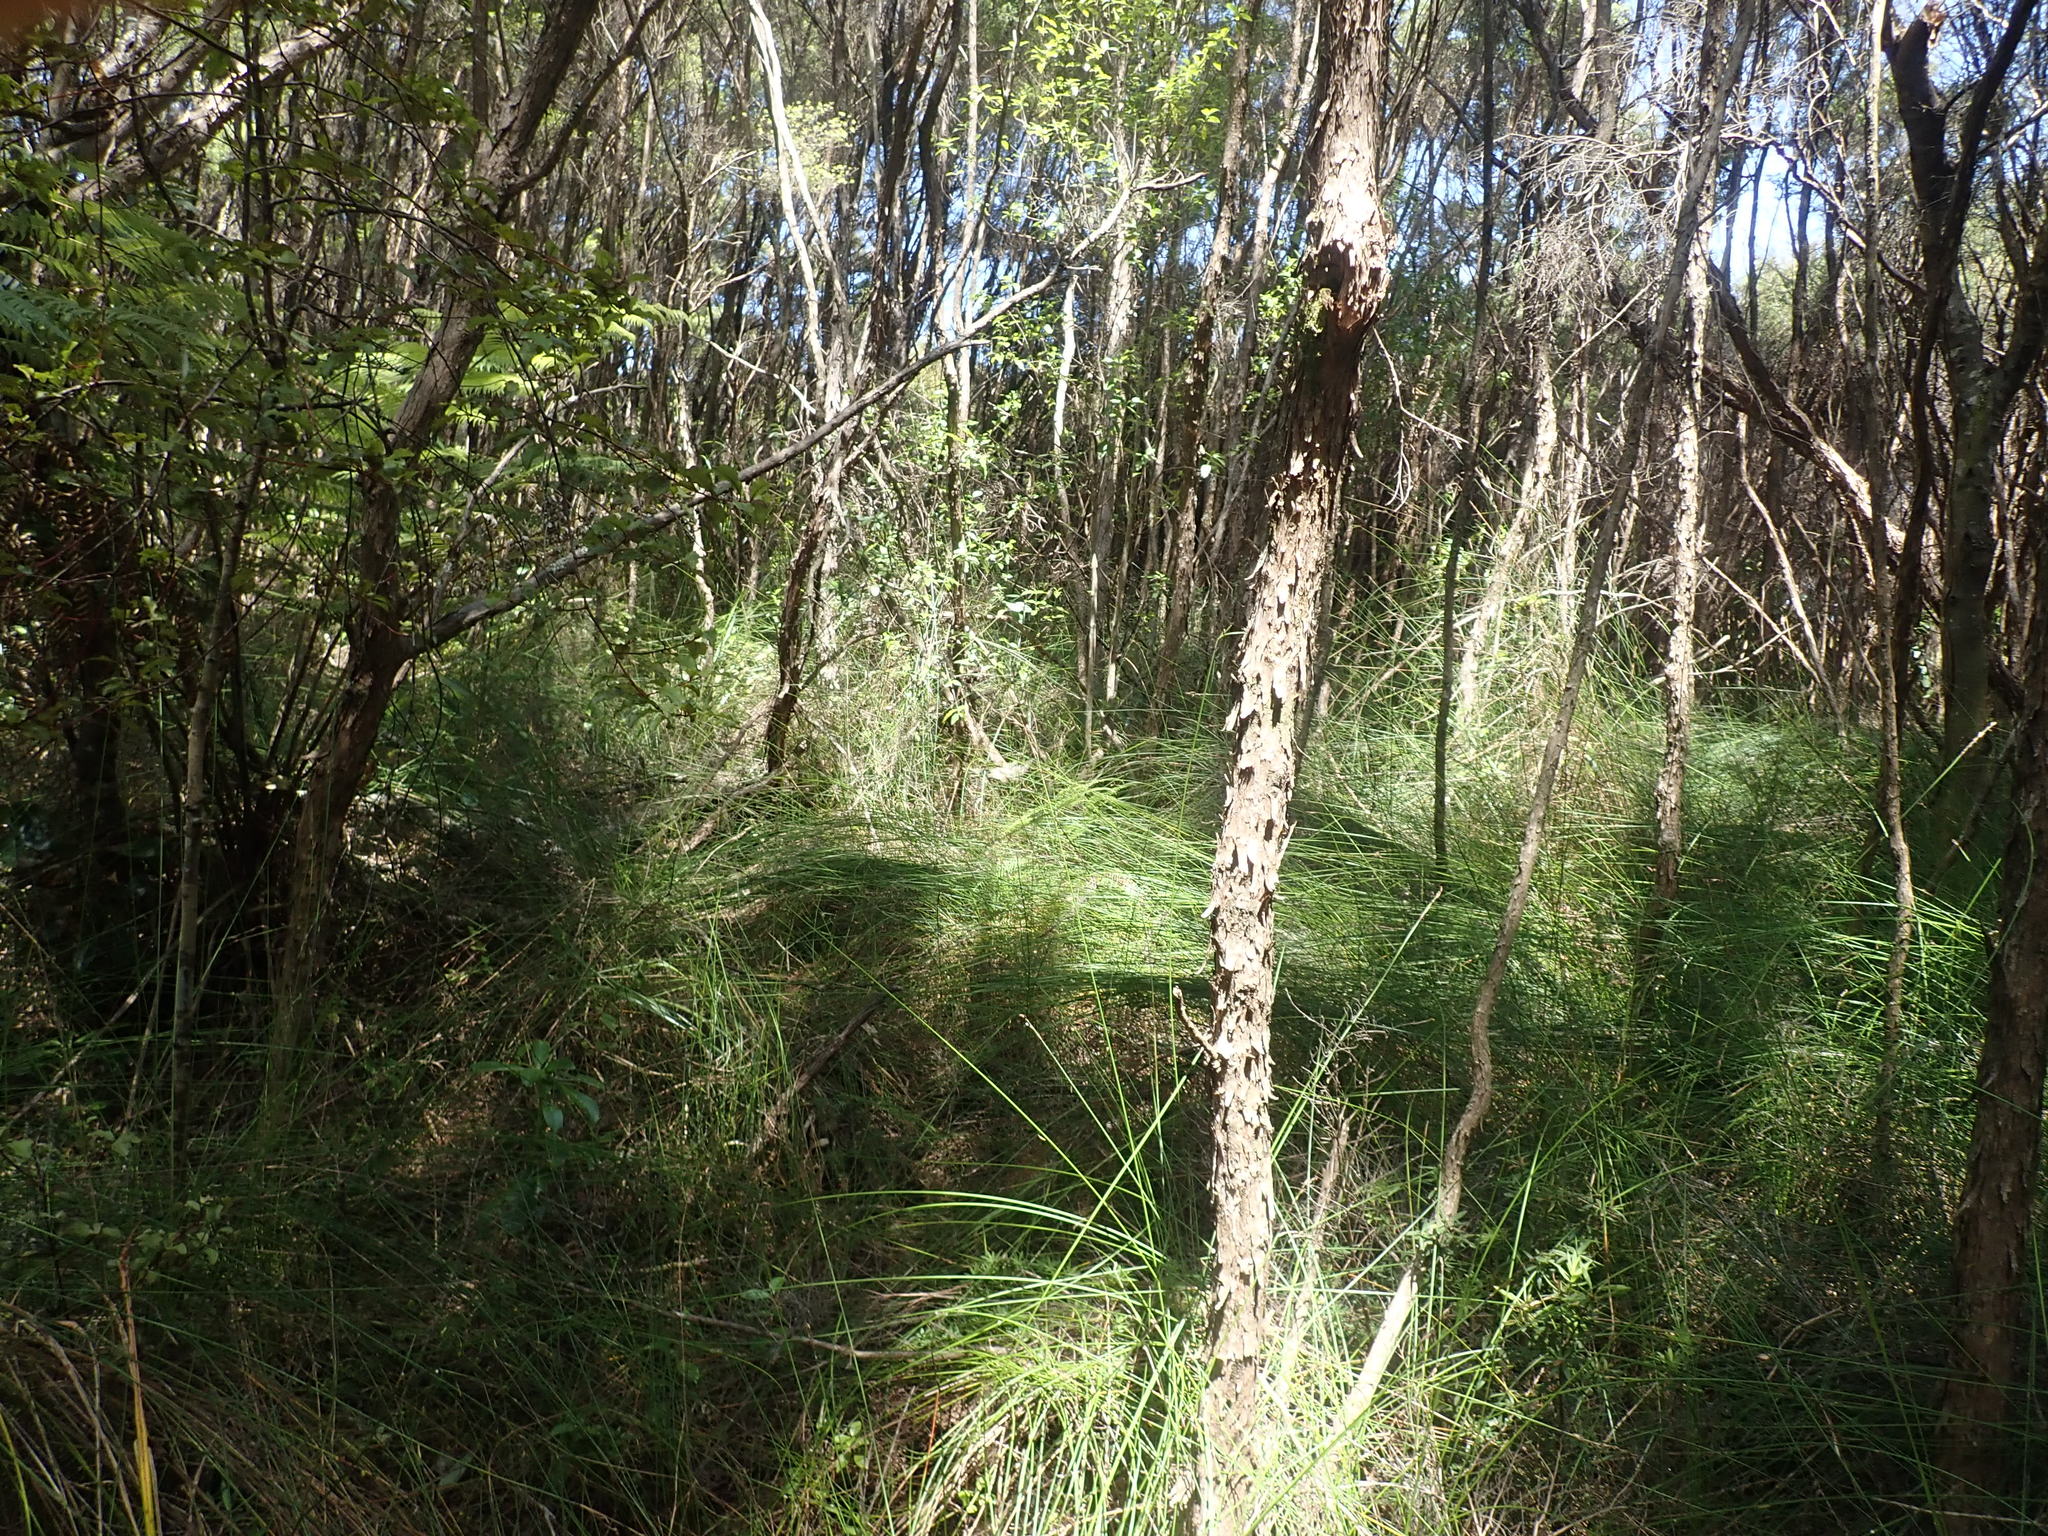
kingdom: Plantae
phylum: Tracheophyta
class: Liliopsida
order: Poales
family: Cyperaceae
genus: Schoenus
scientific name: Schoenus tendo
